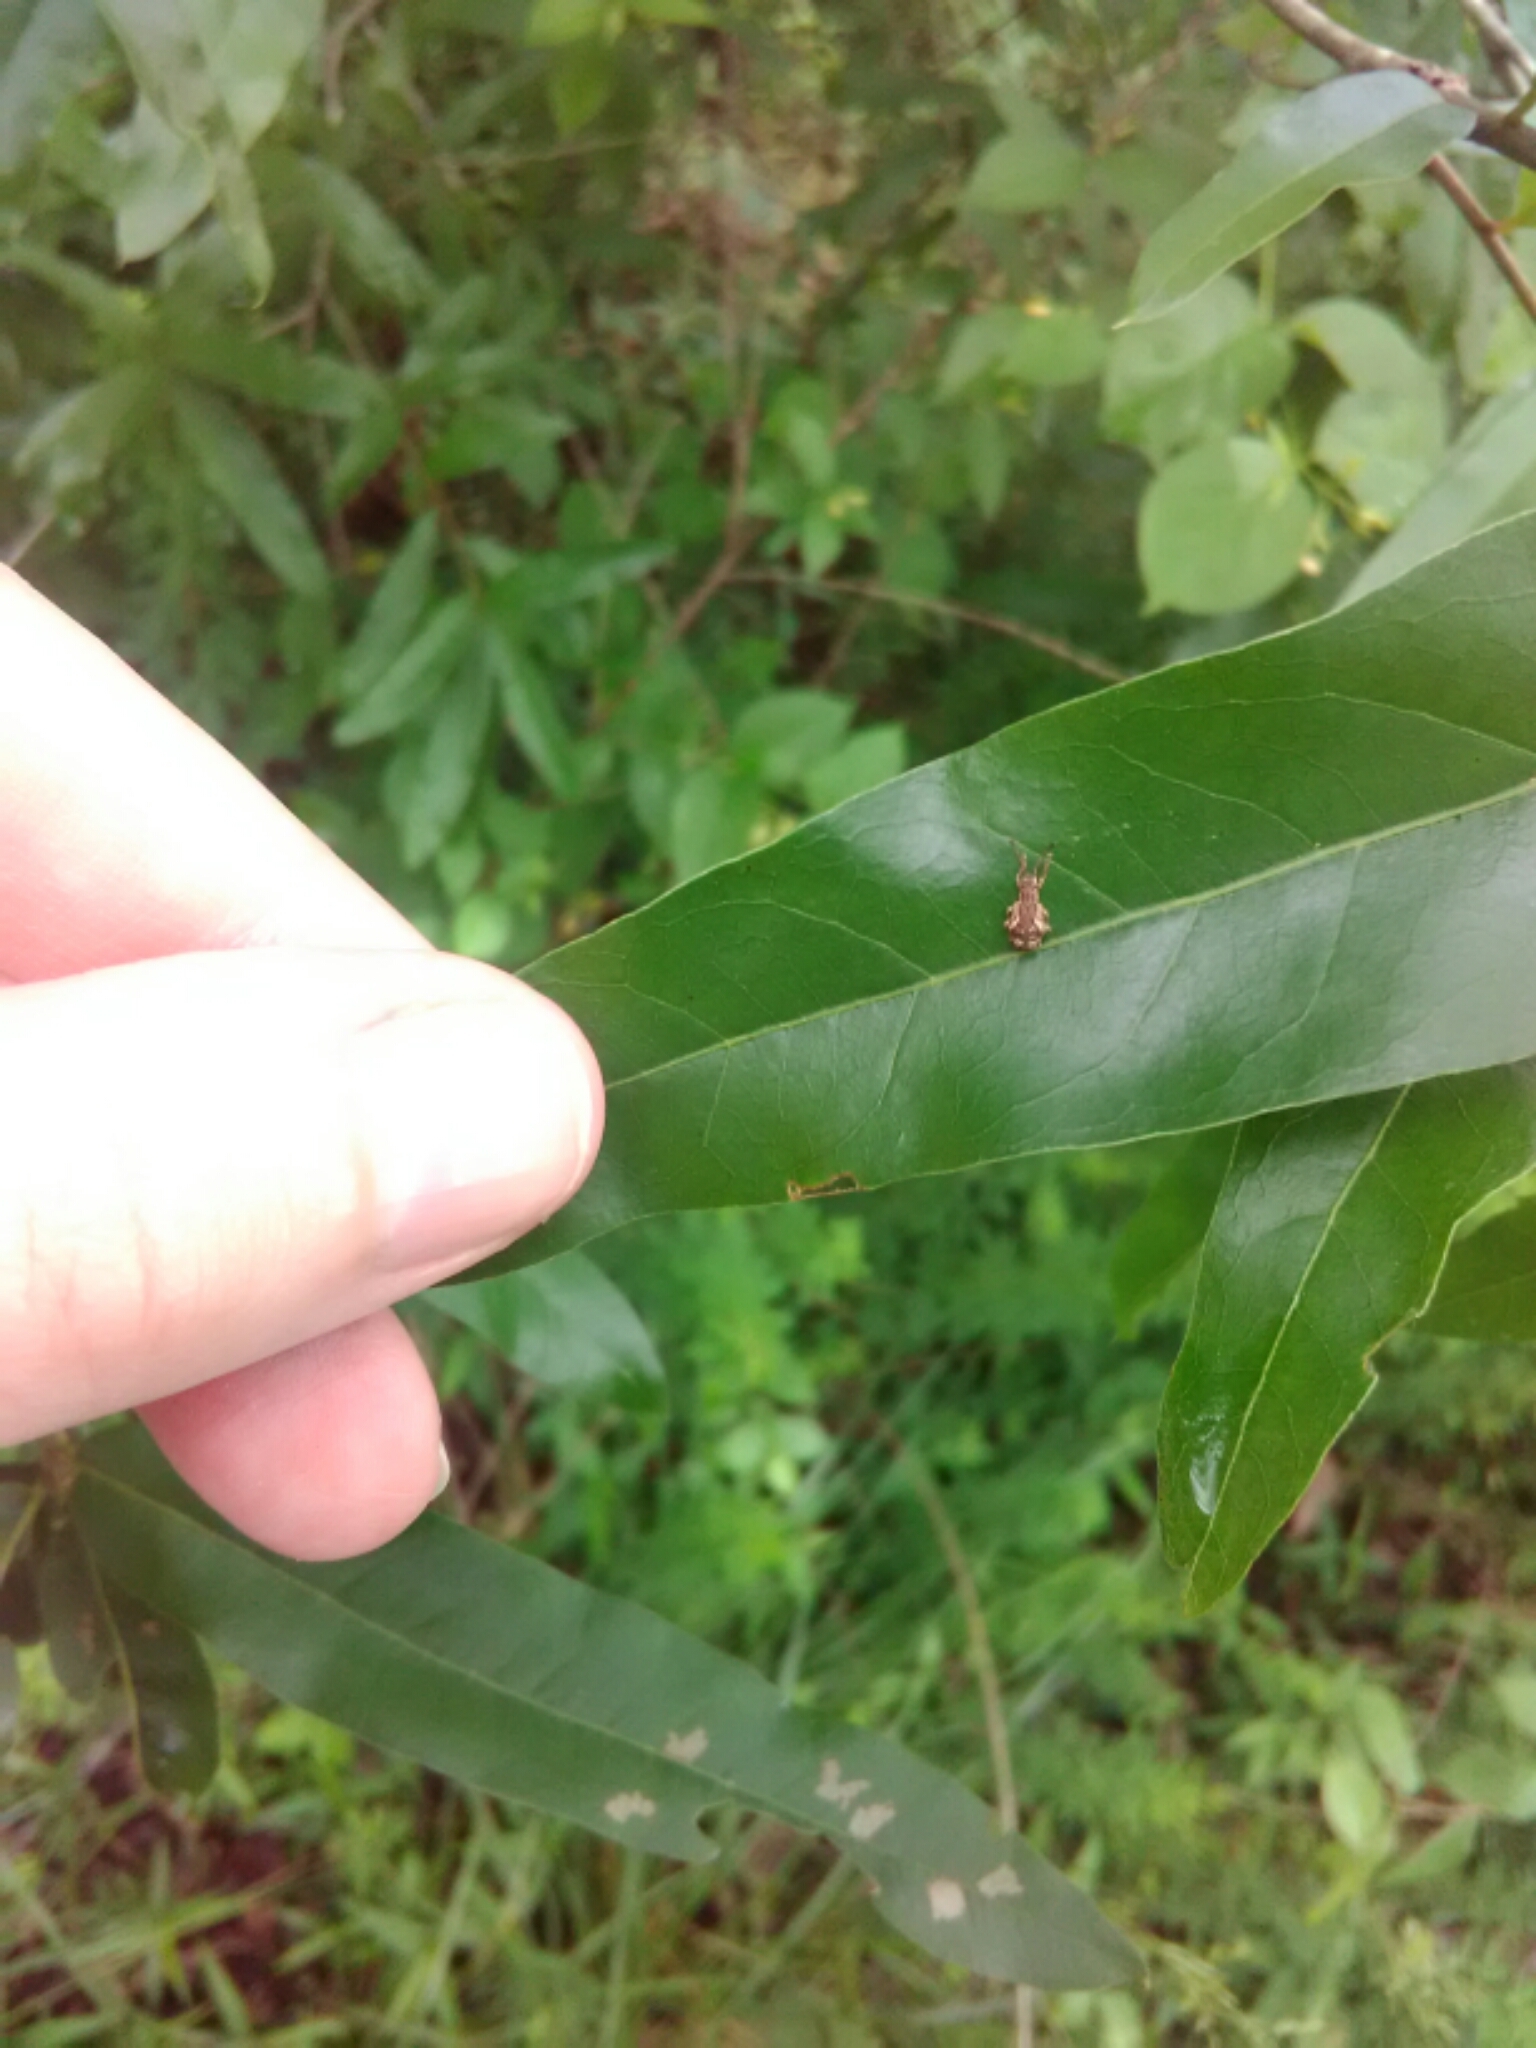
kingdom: Animalia
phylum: Arthropoda
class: Insecta
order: Coleoptera
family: Curculionidae
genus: Pseudoedophrys
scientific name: Pseudoedophrys hilleri
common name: Weevil
